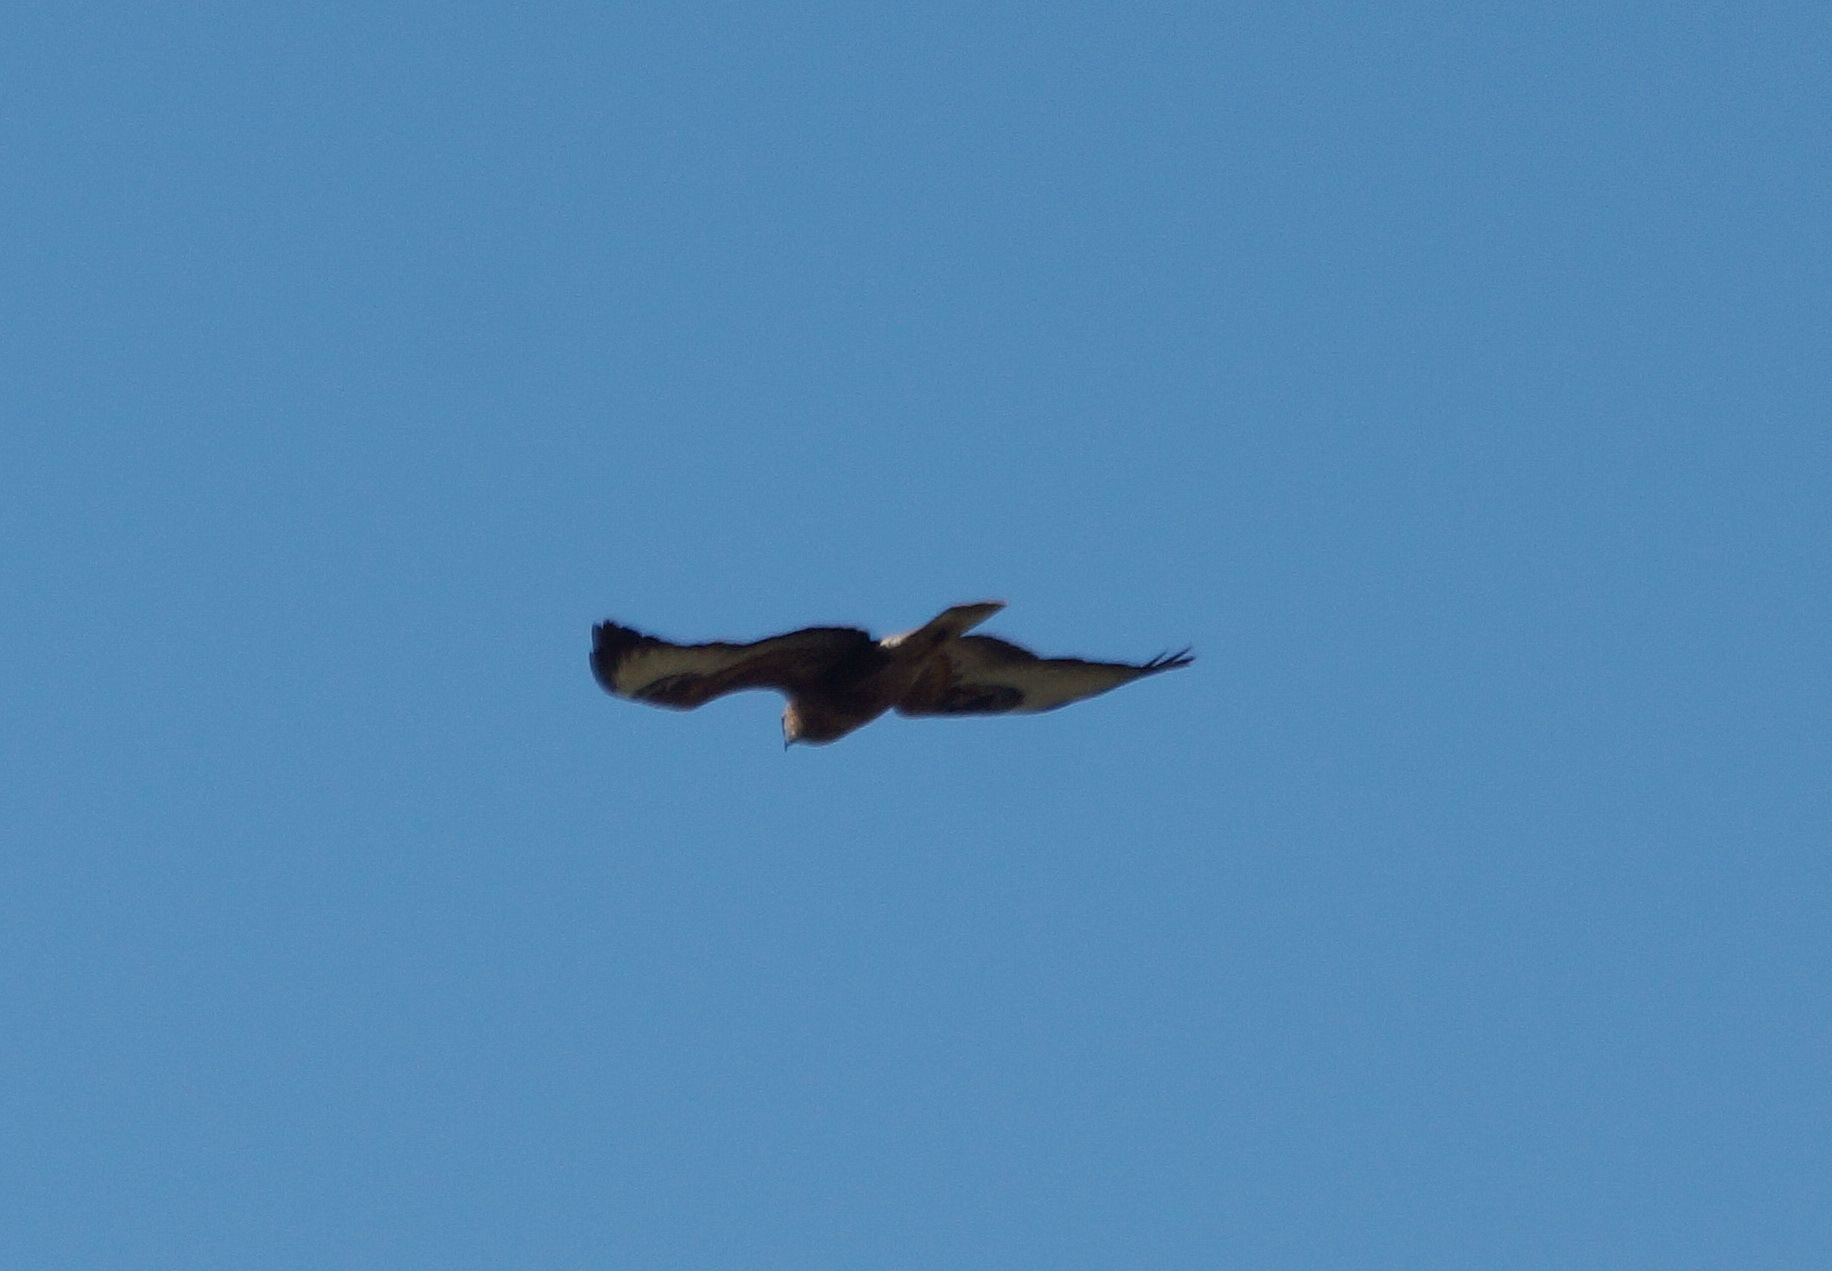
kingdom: Animalia
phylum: Chordata
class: Aves
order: Accipitriformes
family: Accipitridae
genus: Buteo
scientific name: Buteo buteo
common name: Common buzzard
